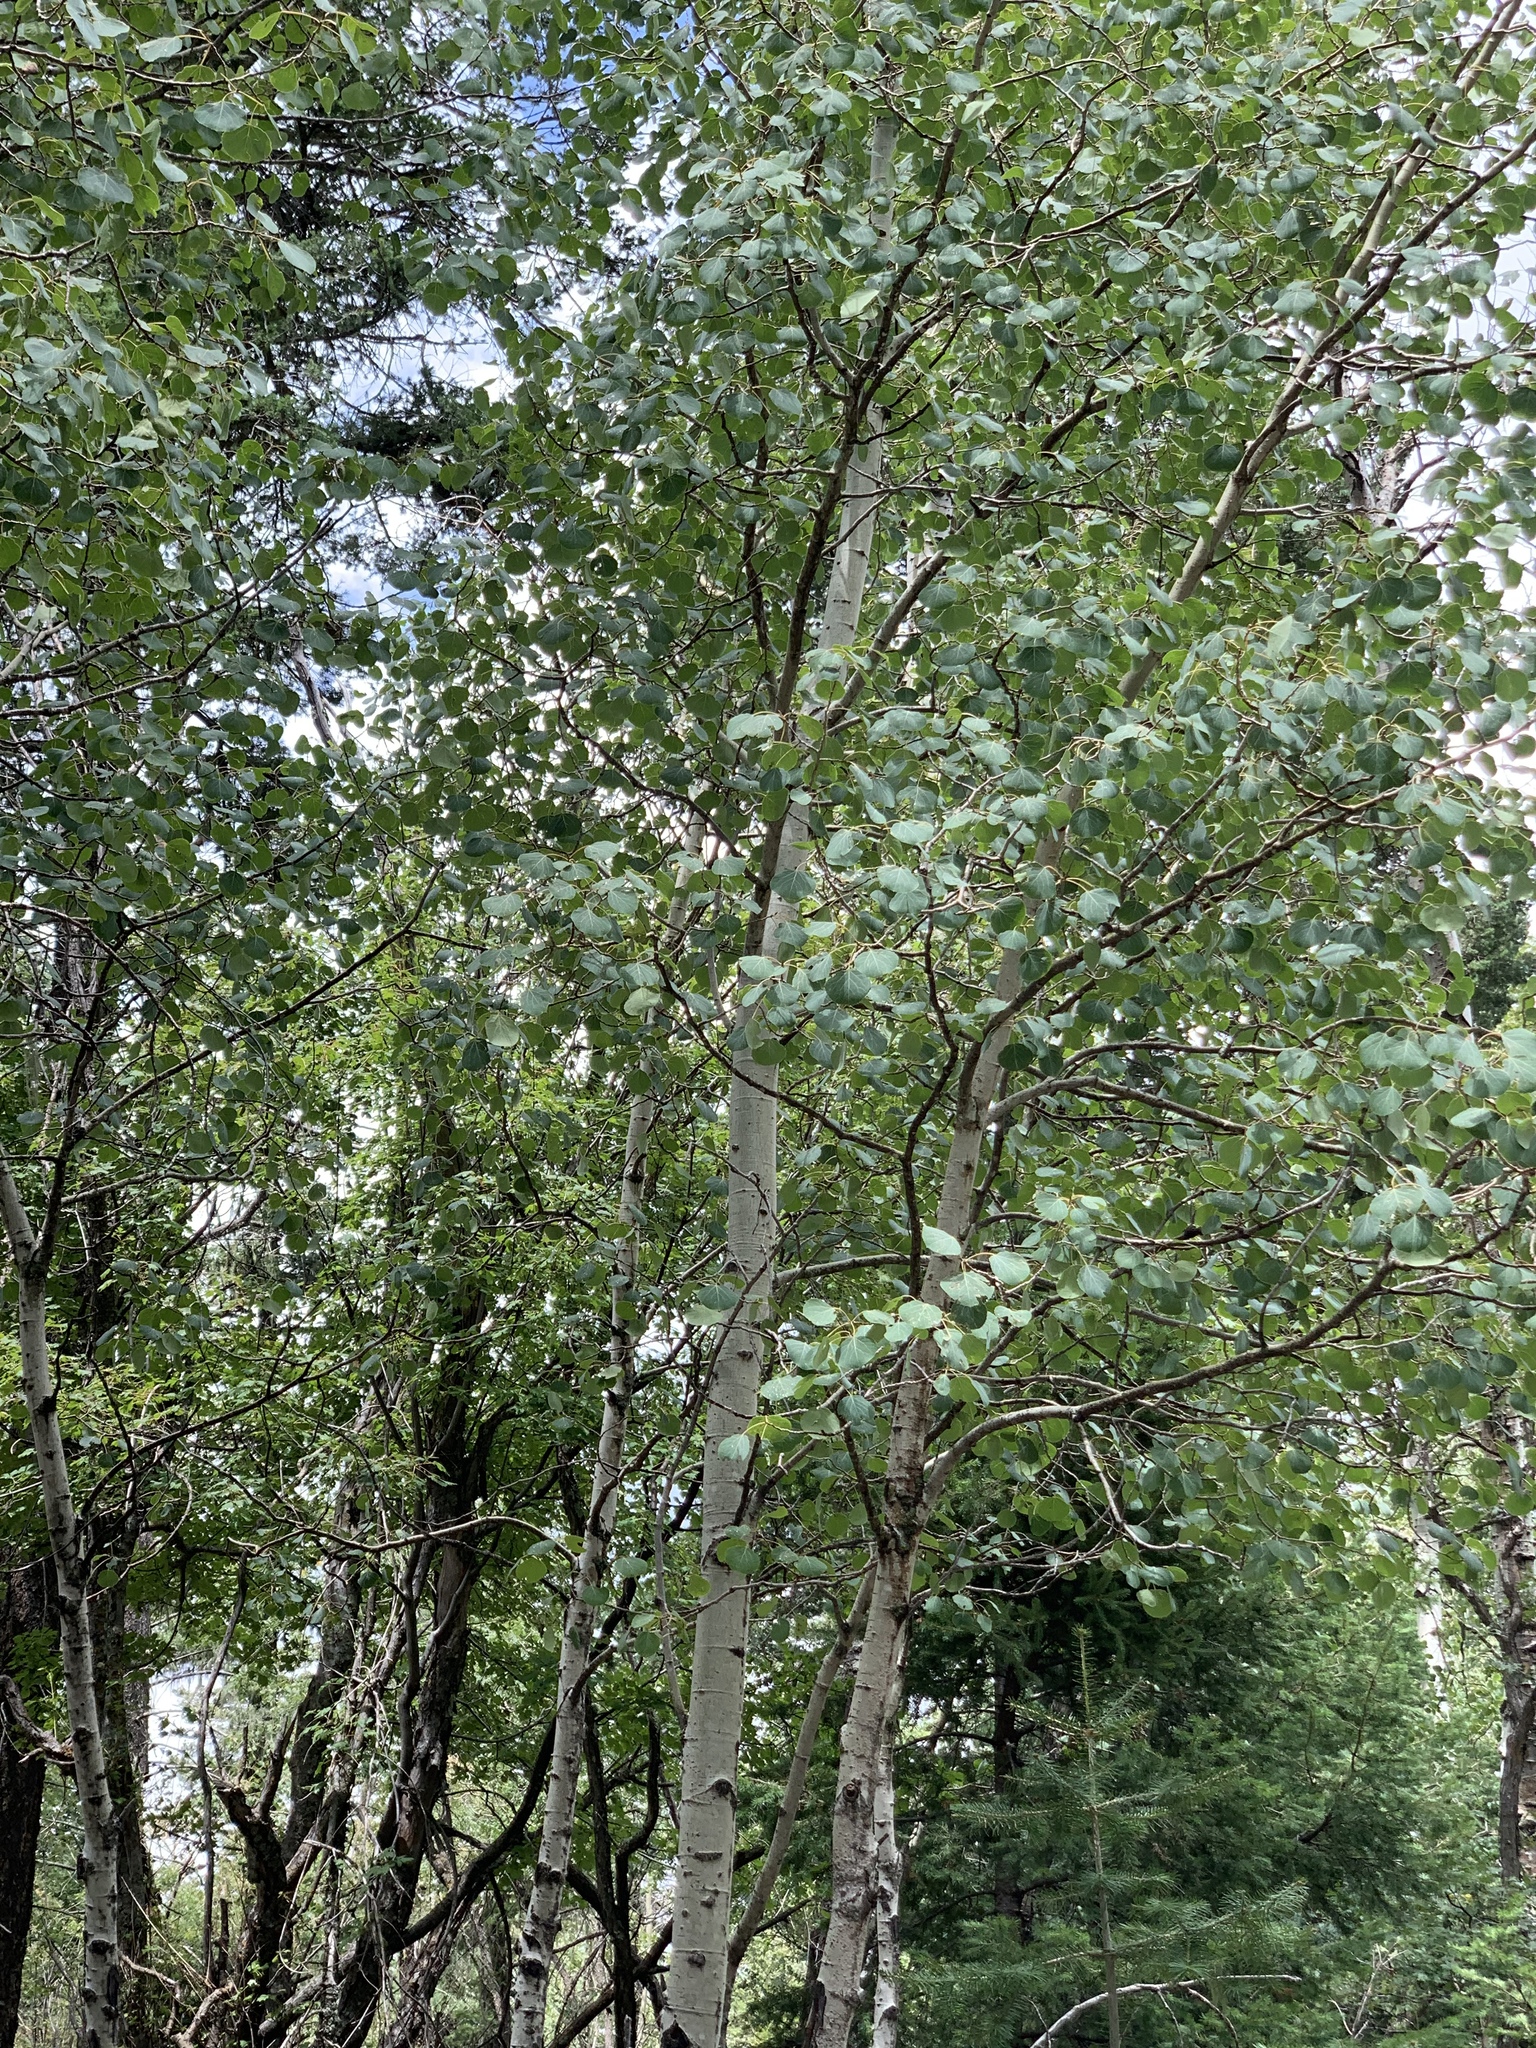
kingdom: Plantae
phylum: Tracheophyta
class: Magnoliopsida
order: Malpighiales
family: Salicaceae
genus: Populus
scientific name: Populus tremuloides
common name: Quaking aspen
